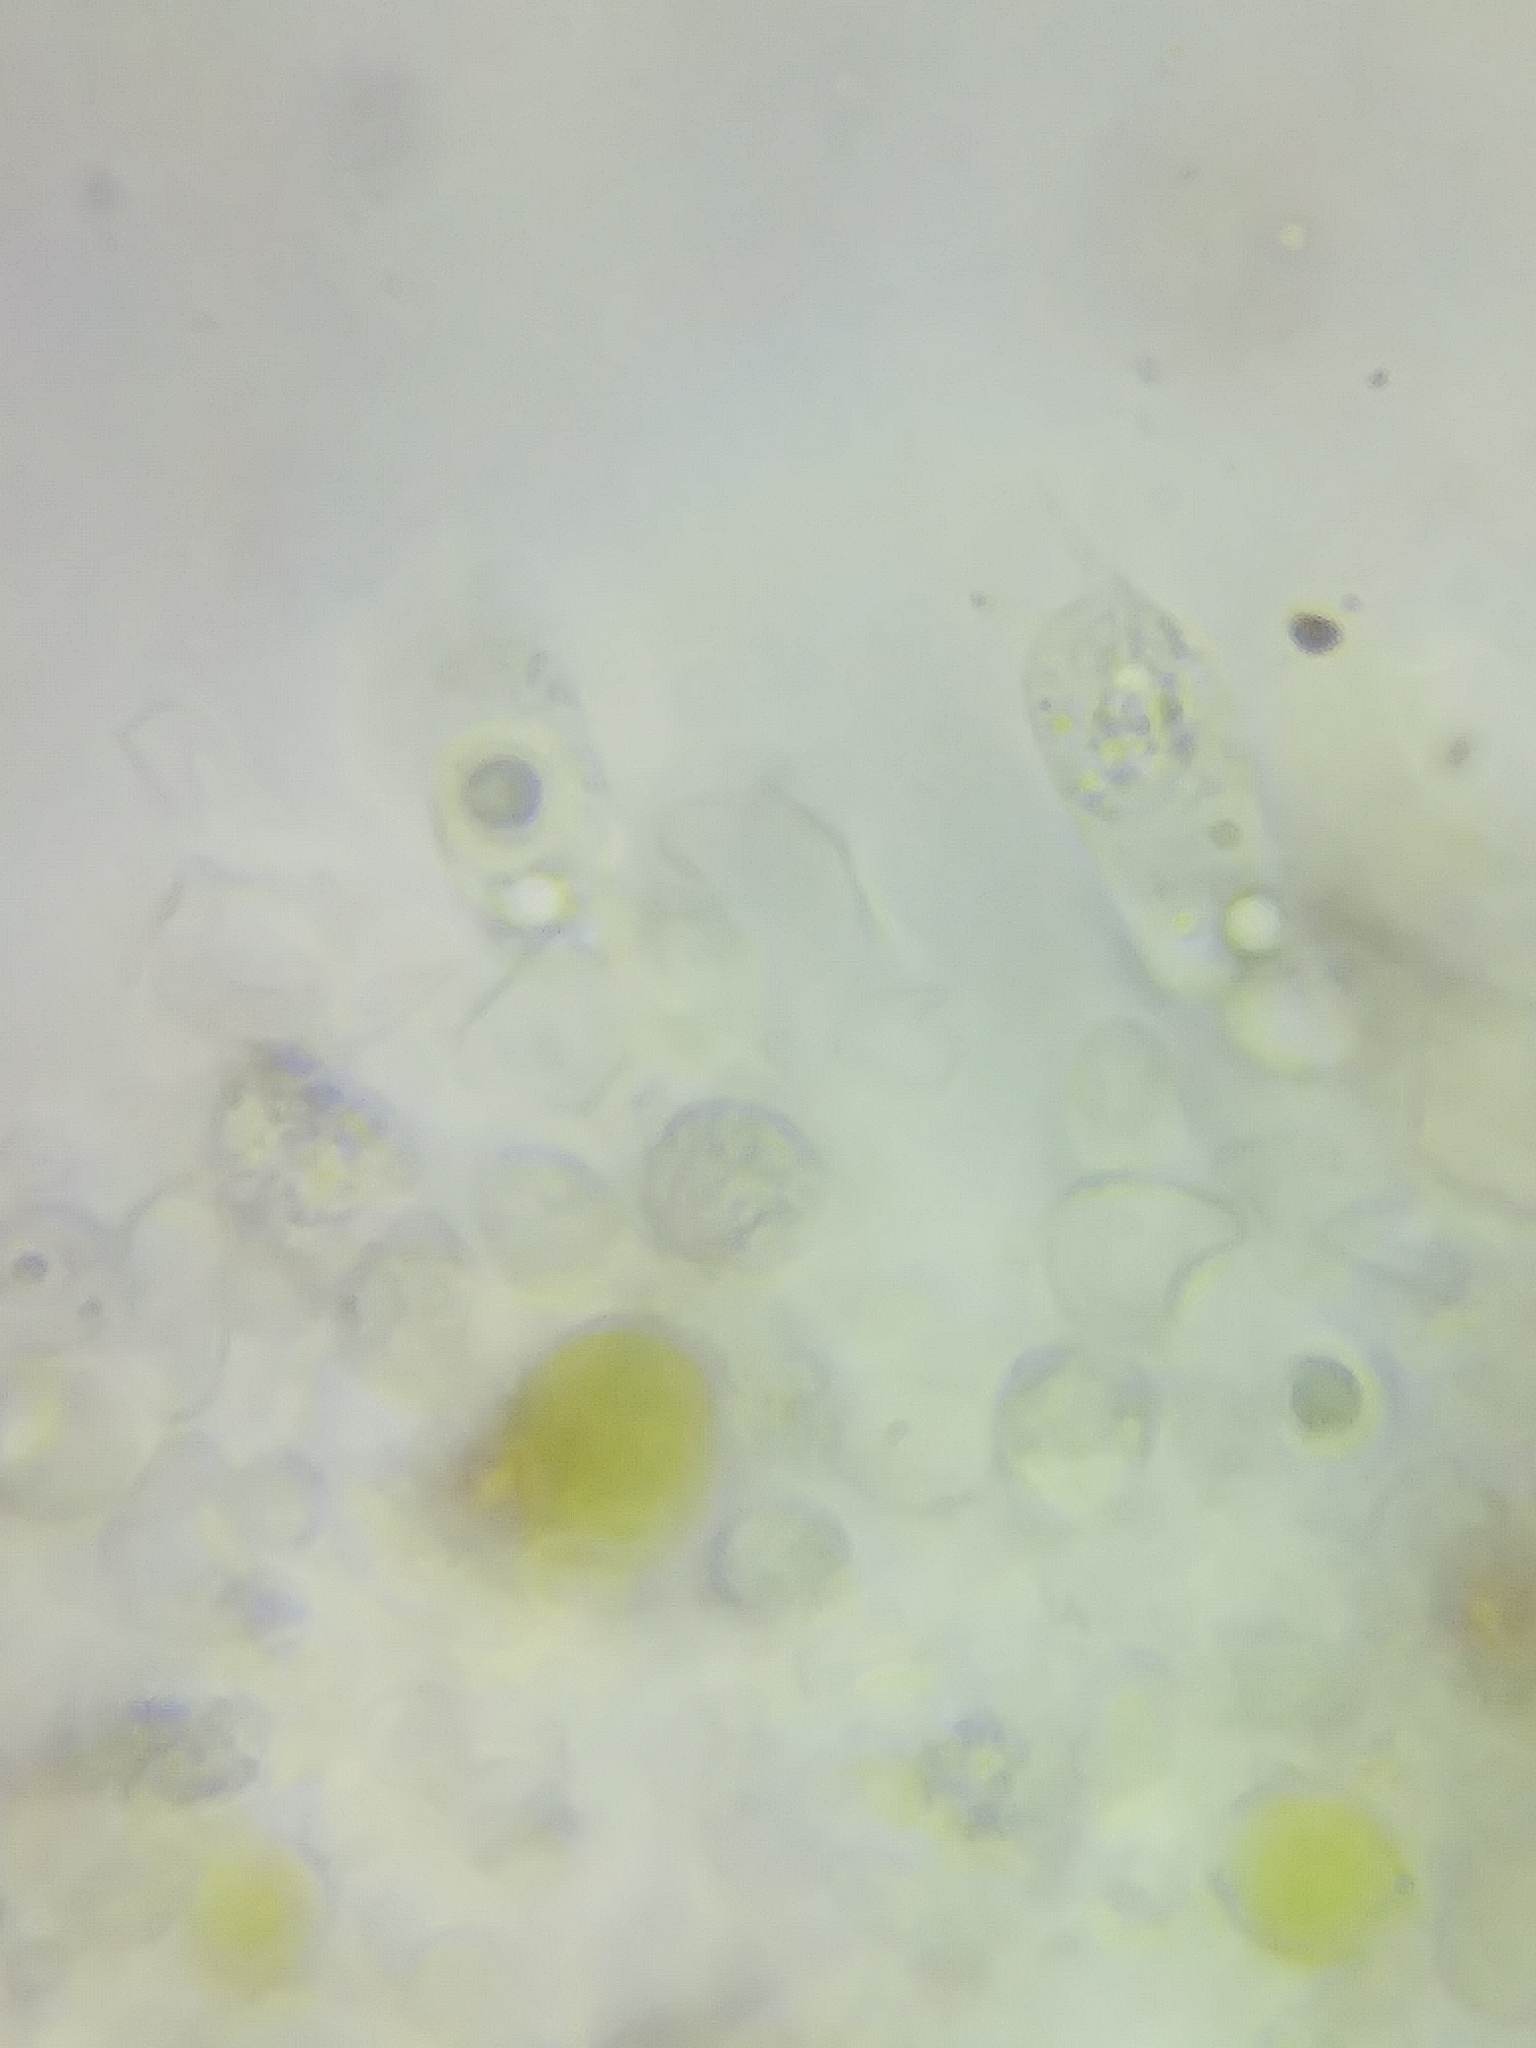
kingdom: Fungi
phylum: Basidiomycota
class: Agaricomycetes
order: Agaricales
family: Cortinariaceae
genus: Cortinarius
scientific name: Cortinarius cinnamomeus
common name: Cinnamon webcap
